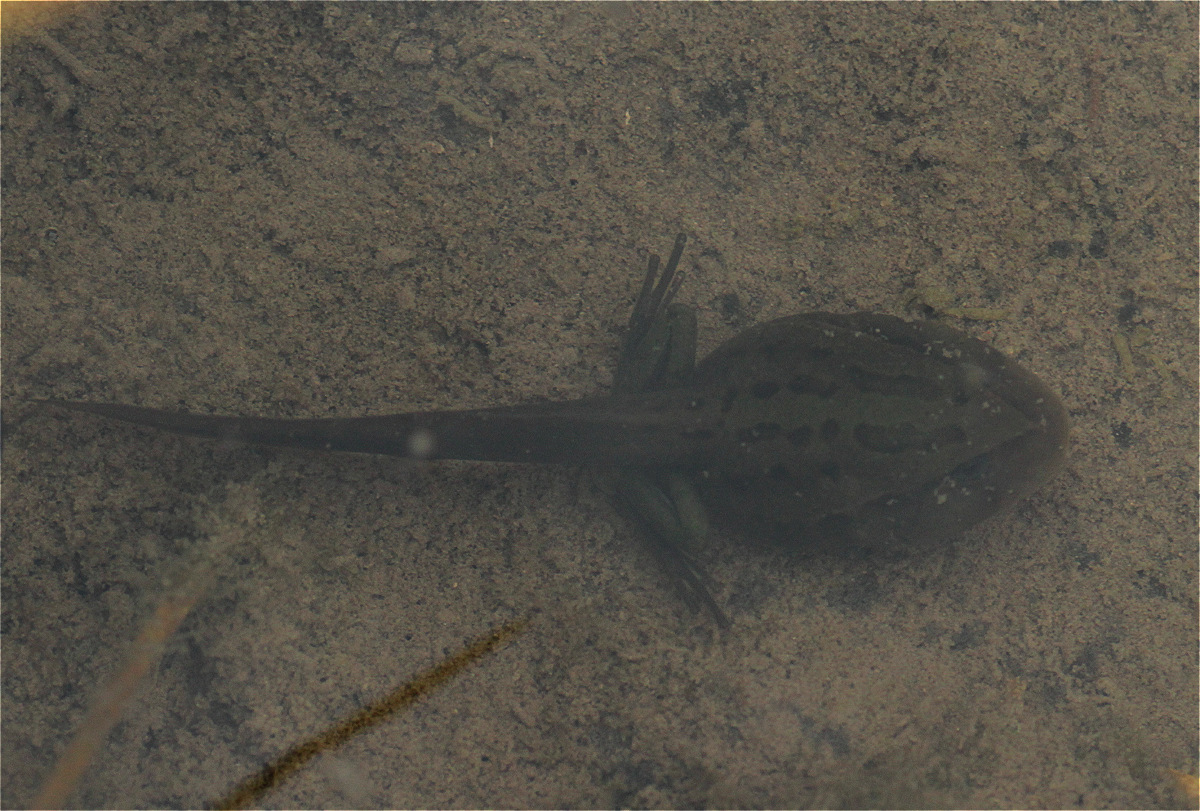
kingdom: Animalia
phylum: Chordata
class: Amphibia
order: Anura
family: Hemiphractidae
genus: Gastrotheca
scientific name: Gastrotheca cuencana
